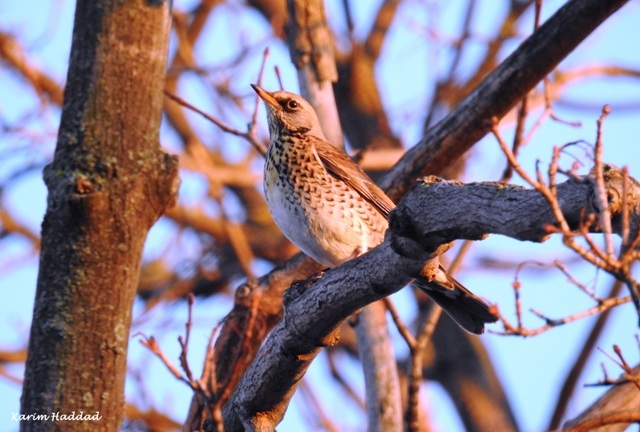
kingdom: Animalia
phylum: Chordata
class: Aves
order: Passeriformes
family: Turdidae
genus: Turdus
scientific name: Turdus pilaris
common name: Fieldfare
